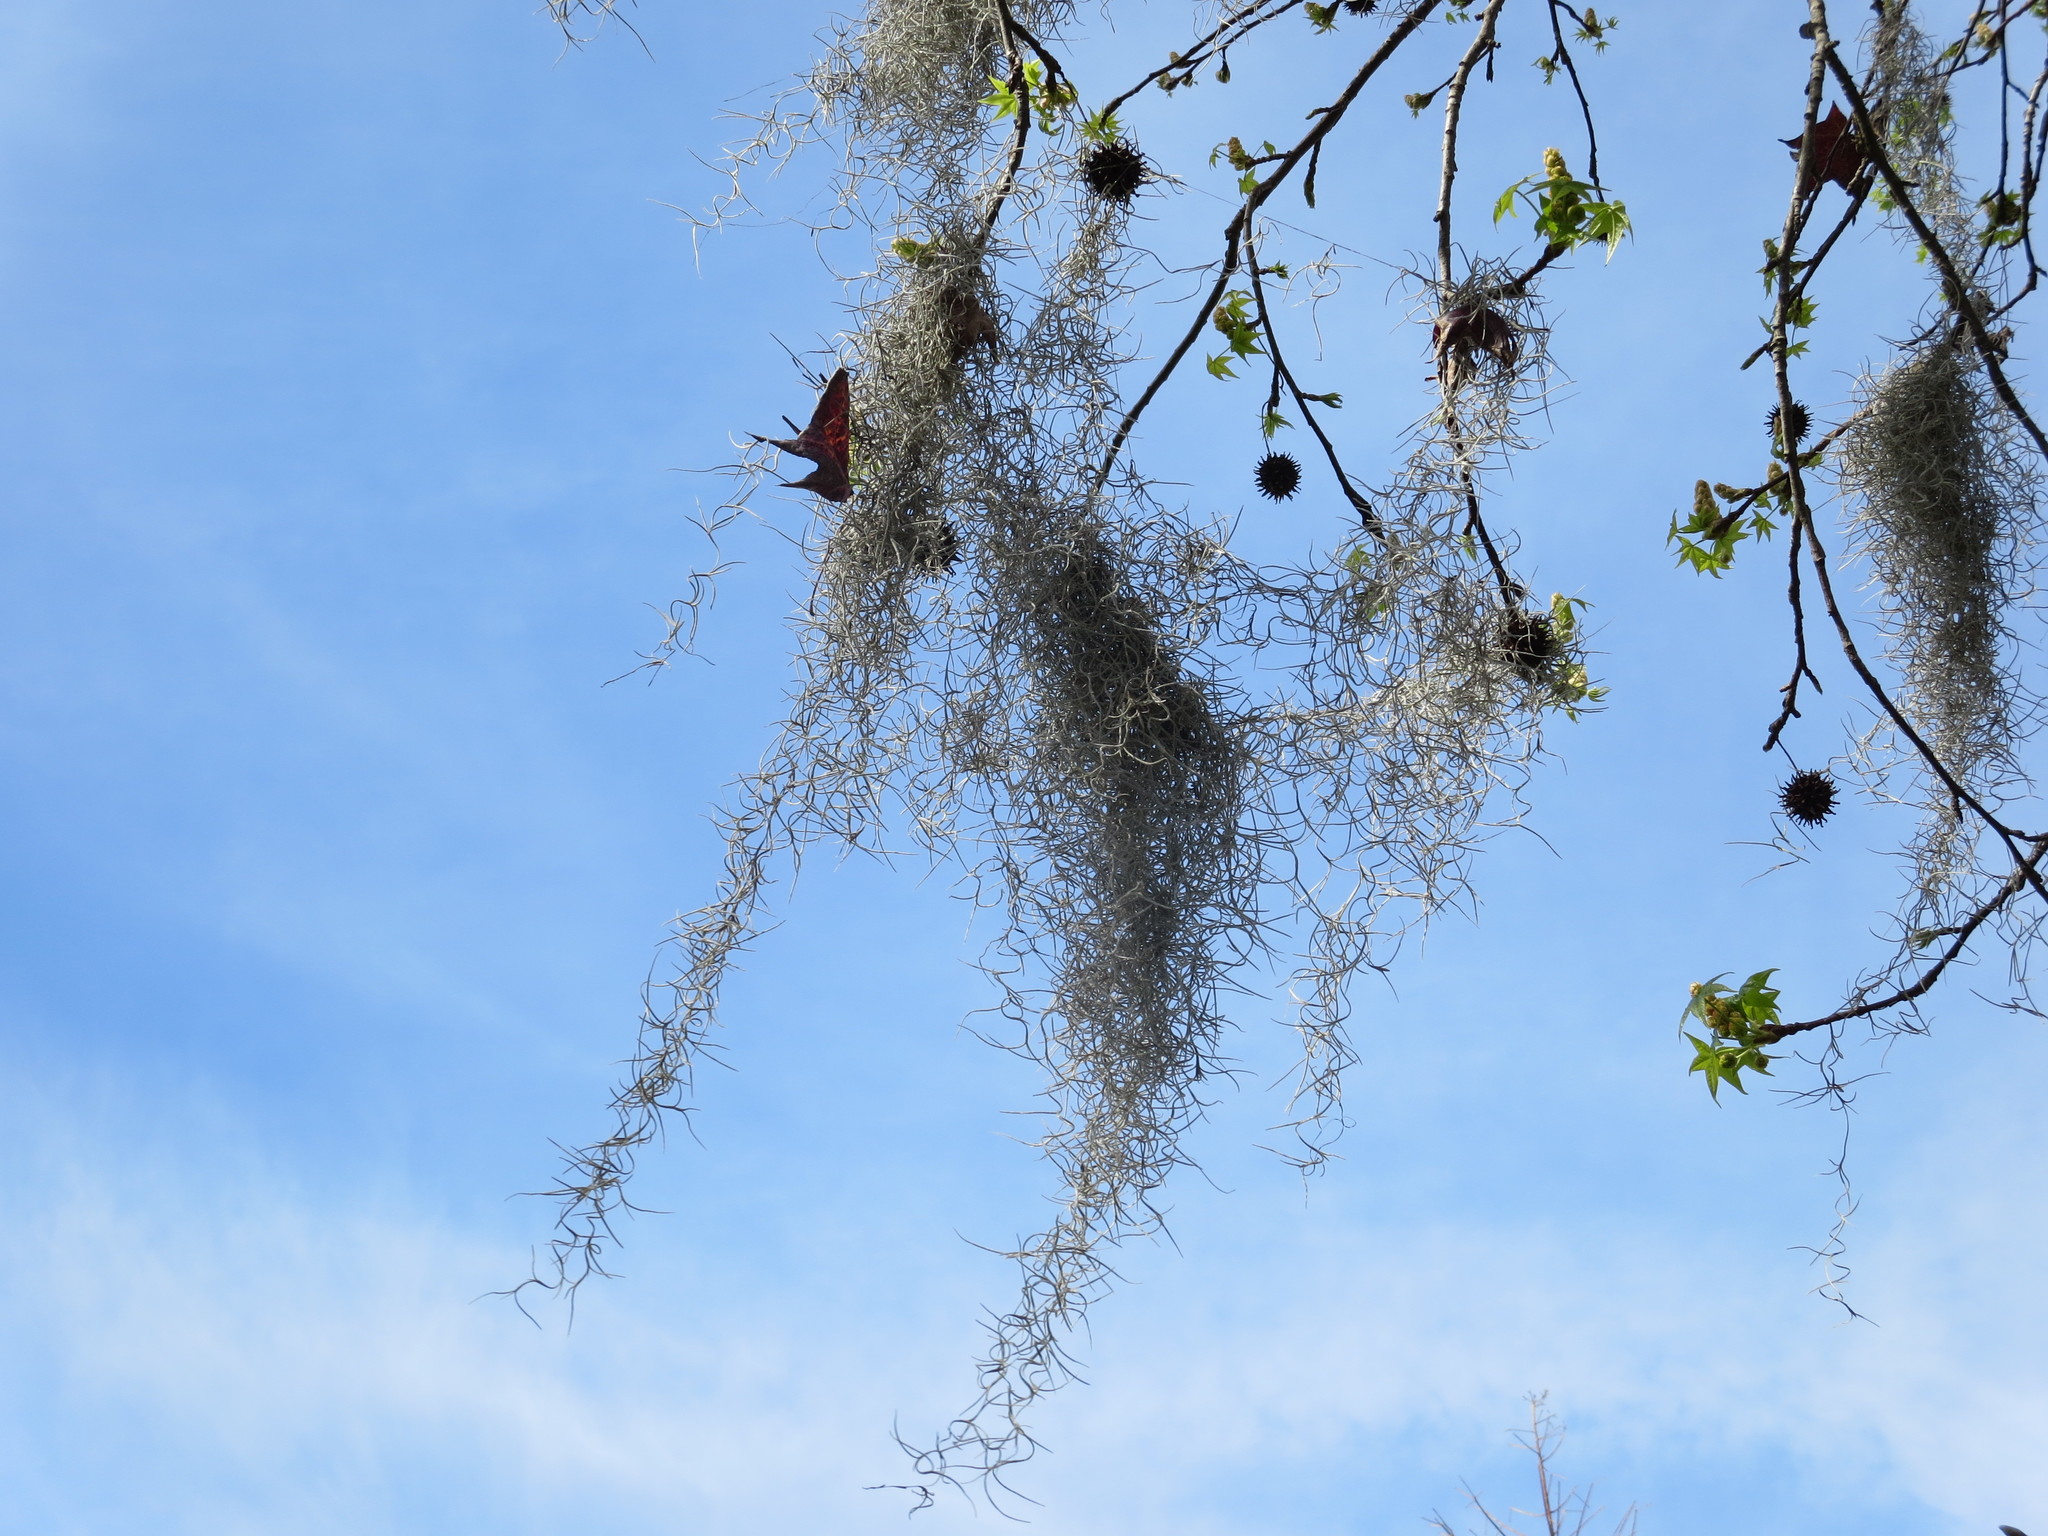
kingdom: Plantae
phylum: Tracheophyta
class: Liliopsida
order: Poales
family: Bromeliaceae
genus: Tillandsia
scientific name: Tillandsia usneoides
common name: Spanish moss
